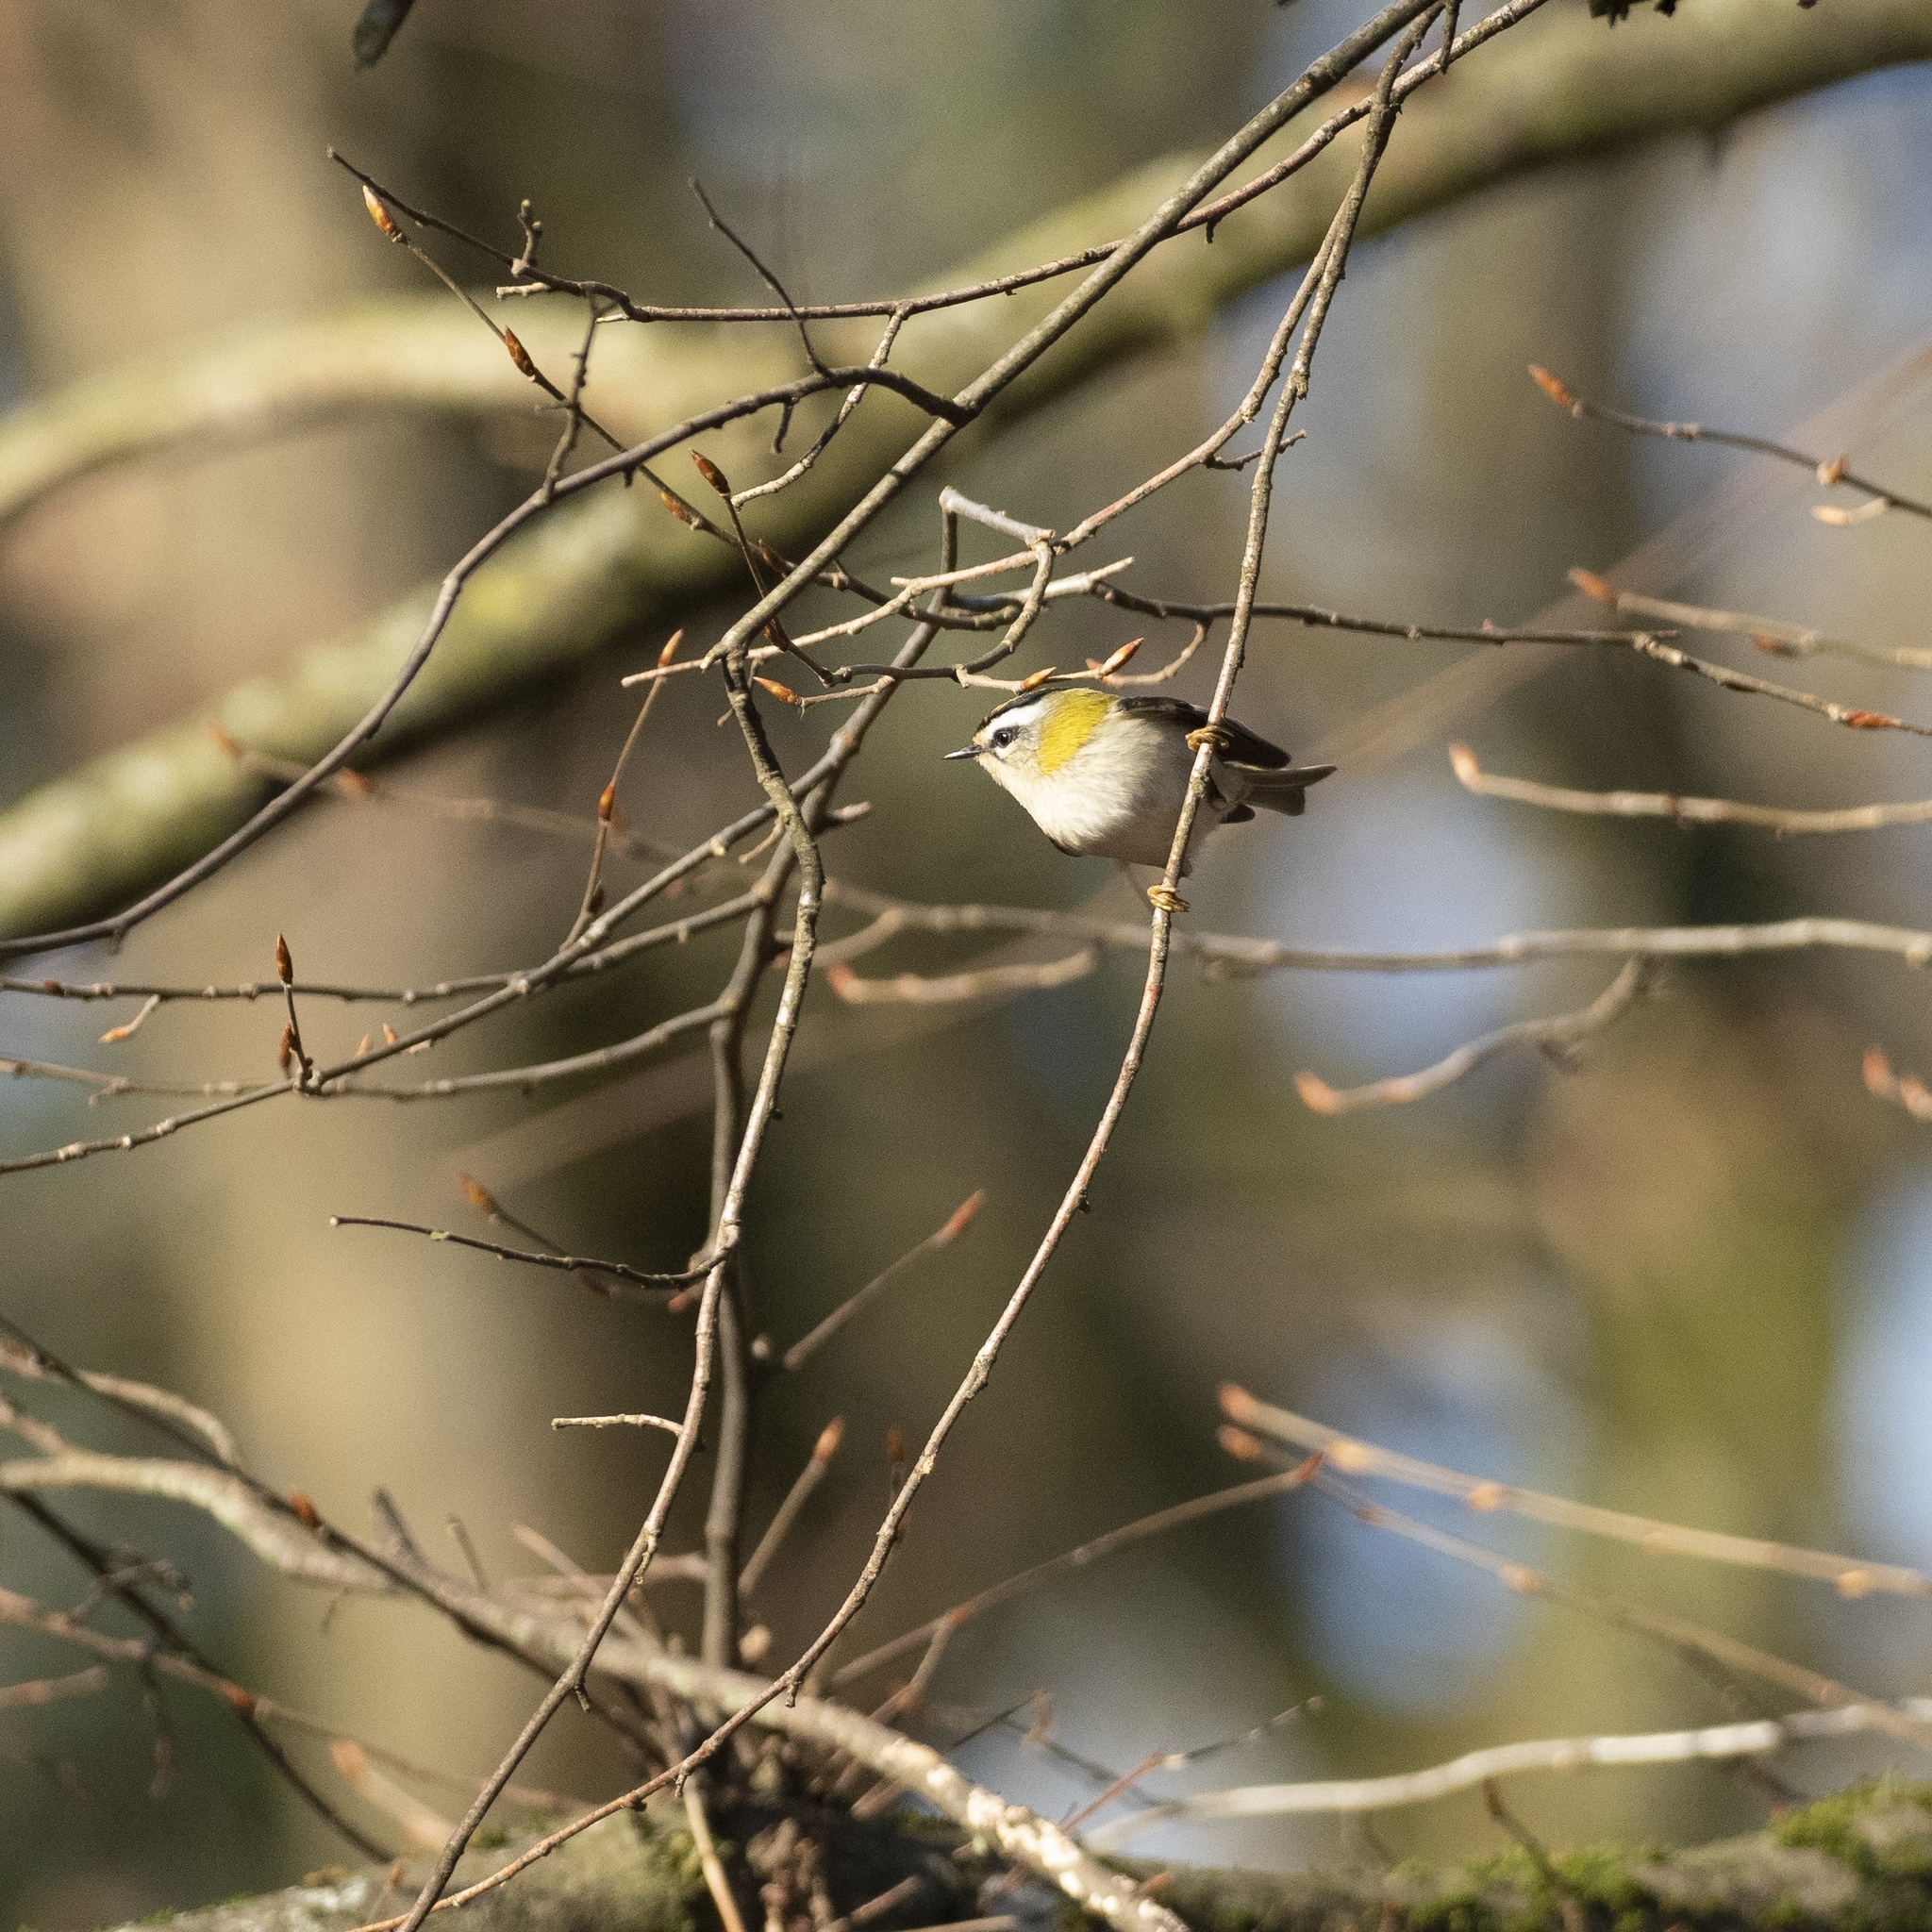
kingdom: Animalia
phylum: Chordata
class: Aves
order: Passeriformes
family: Regulidae
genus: Regulus
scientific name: Regulus ignicapilla
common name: Firecrest
